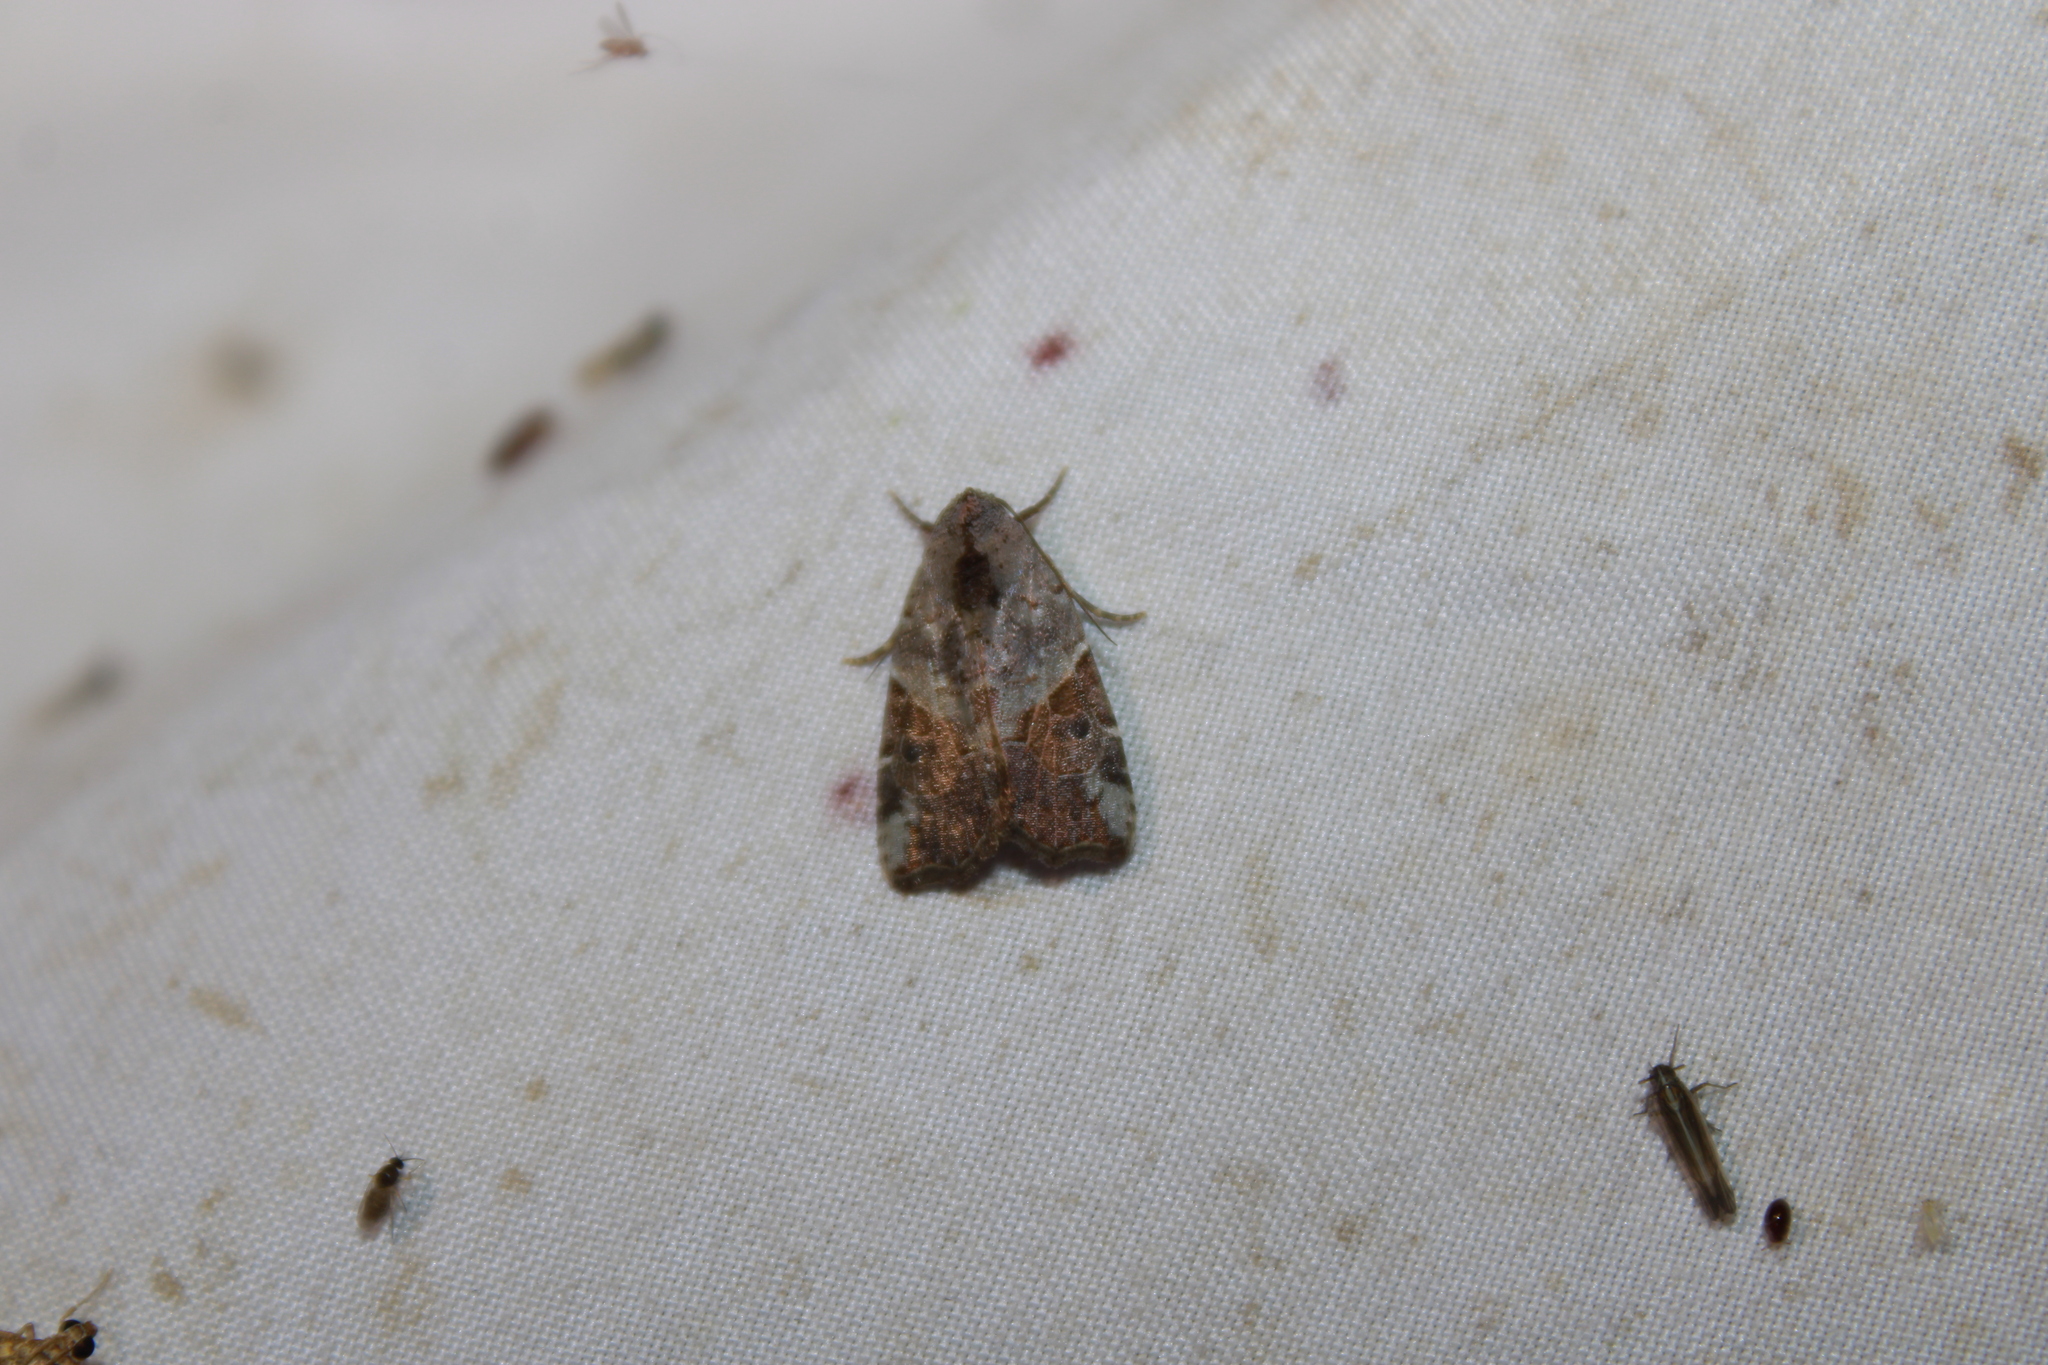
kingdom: Animalia
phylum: Arthropoda
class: Insecta
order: Lepidoptera
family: Noctuidae
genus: Gonodes
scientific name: Gonodes liquida
